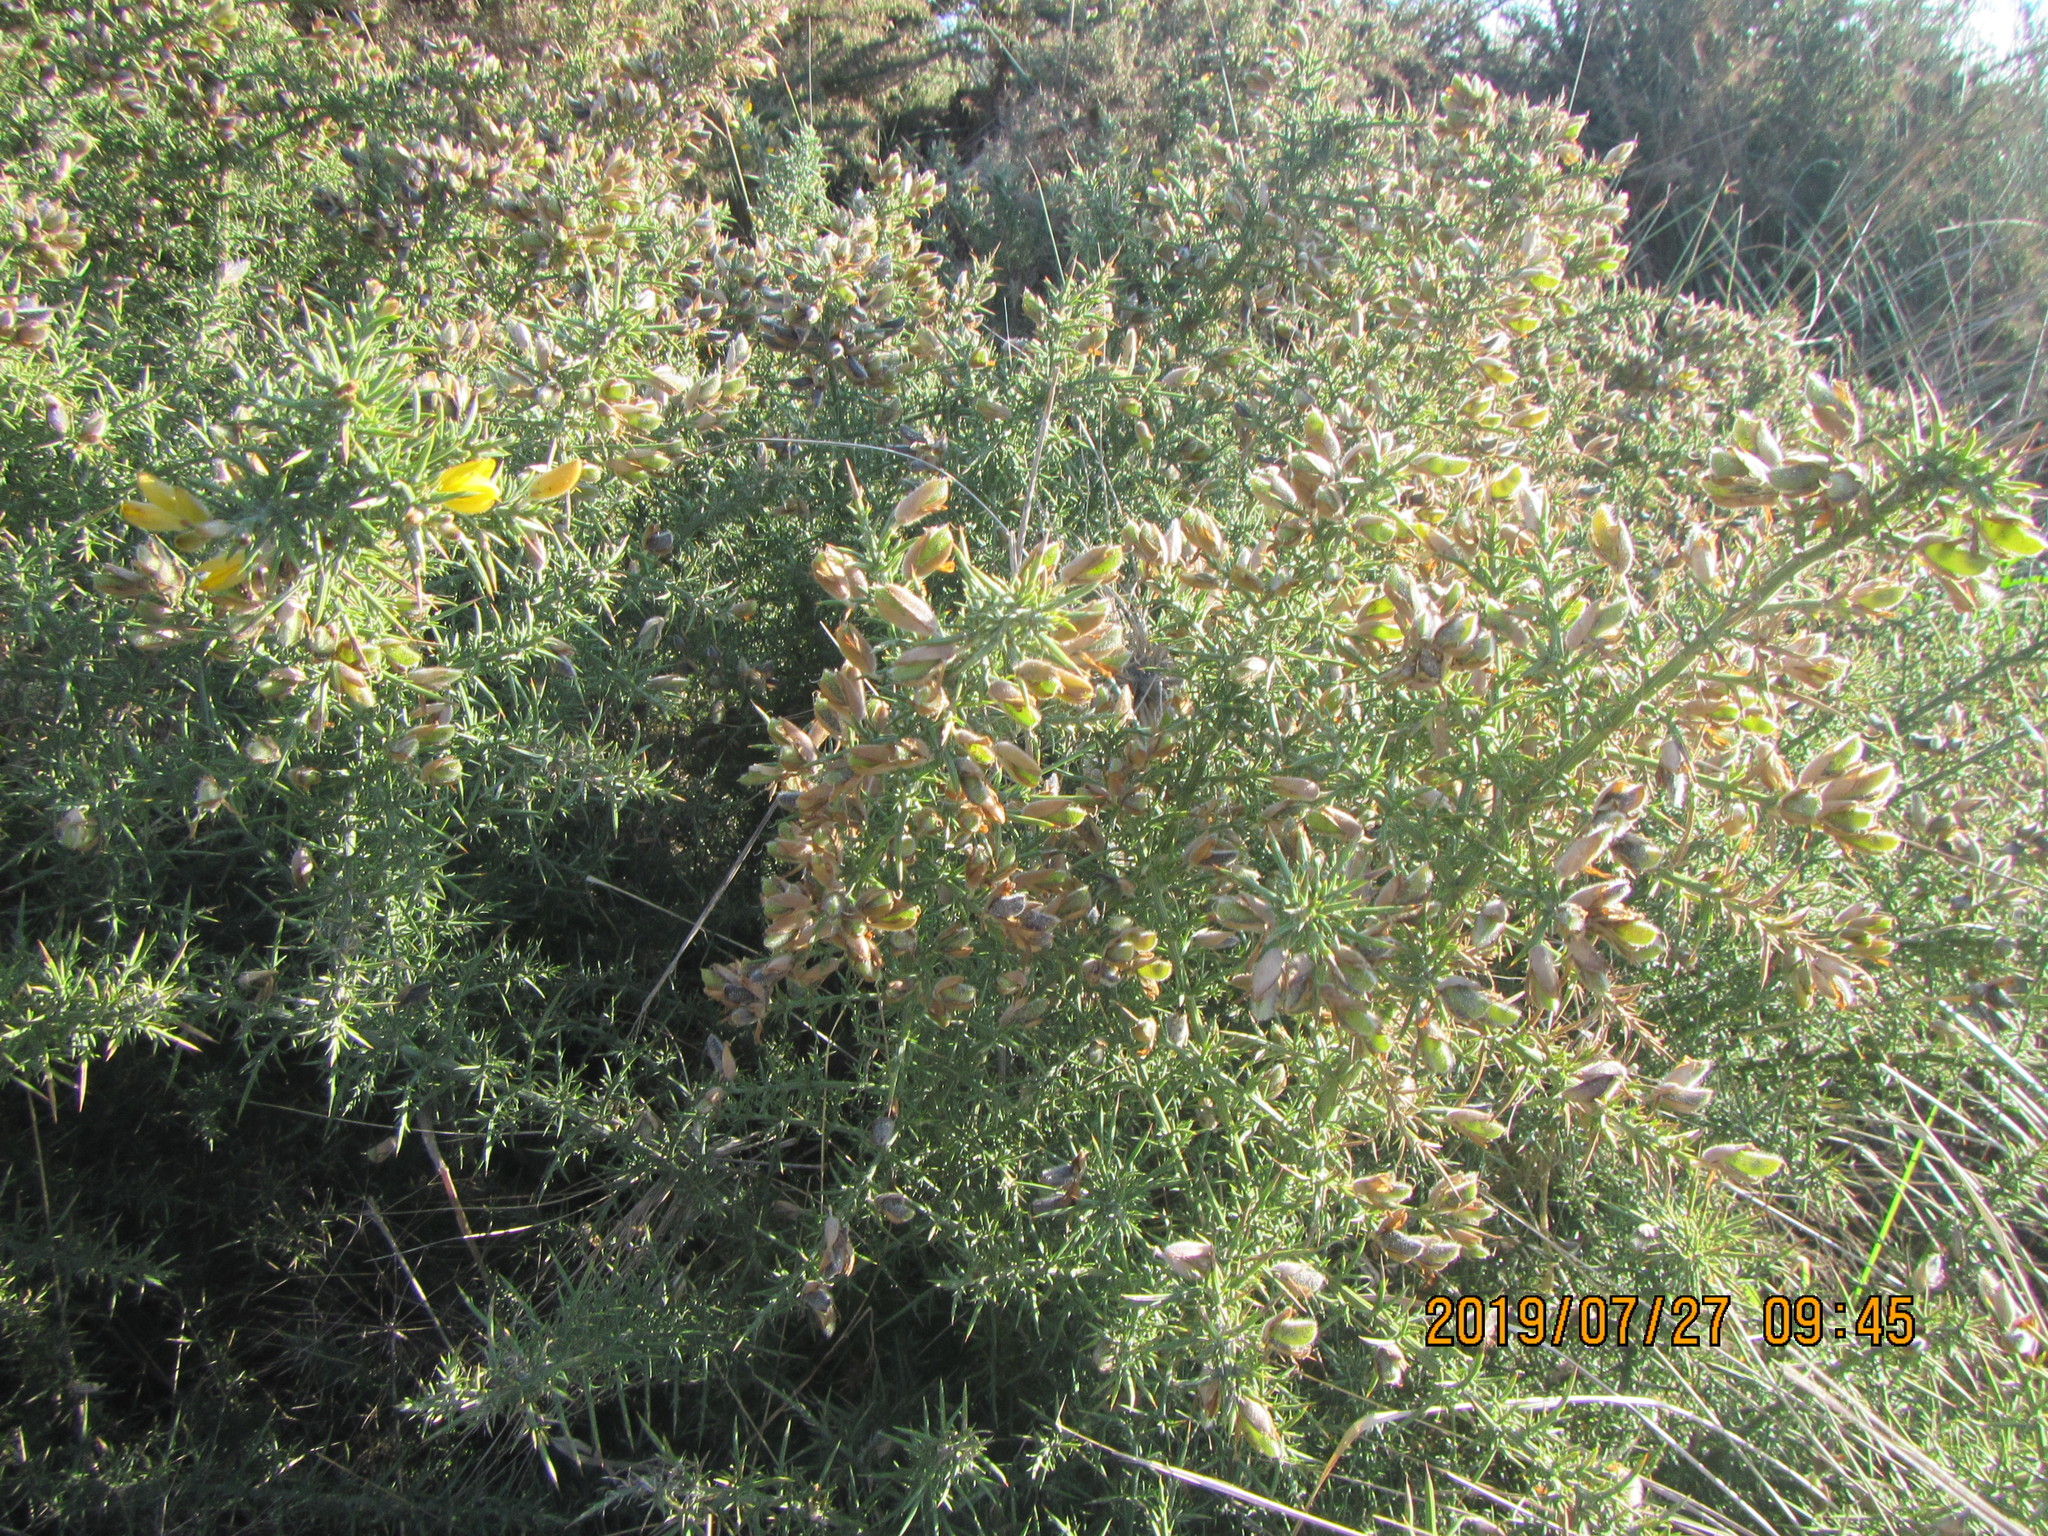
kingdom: Plantae
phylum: Tracheophyta
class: Magnoliopsida
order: Fabales
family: Fabaceae
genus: Ulex
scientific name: Ulex europaeus
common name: Common gorse
